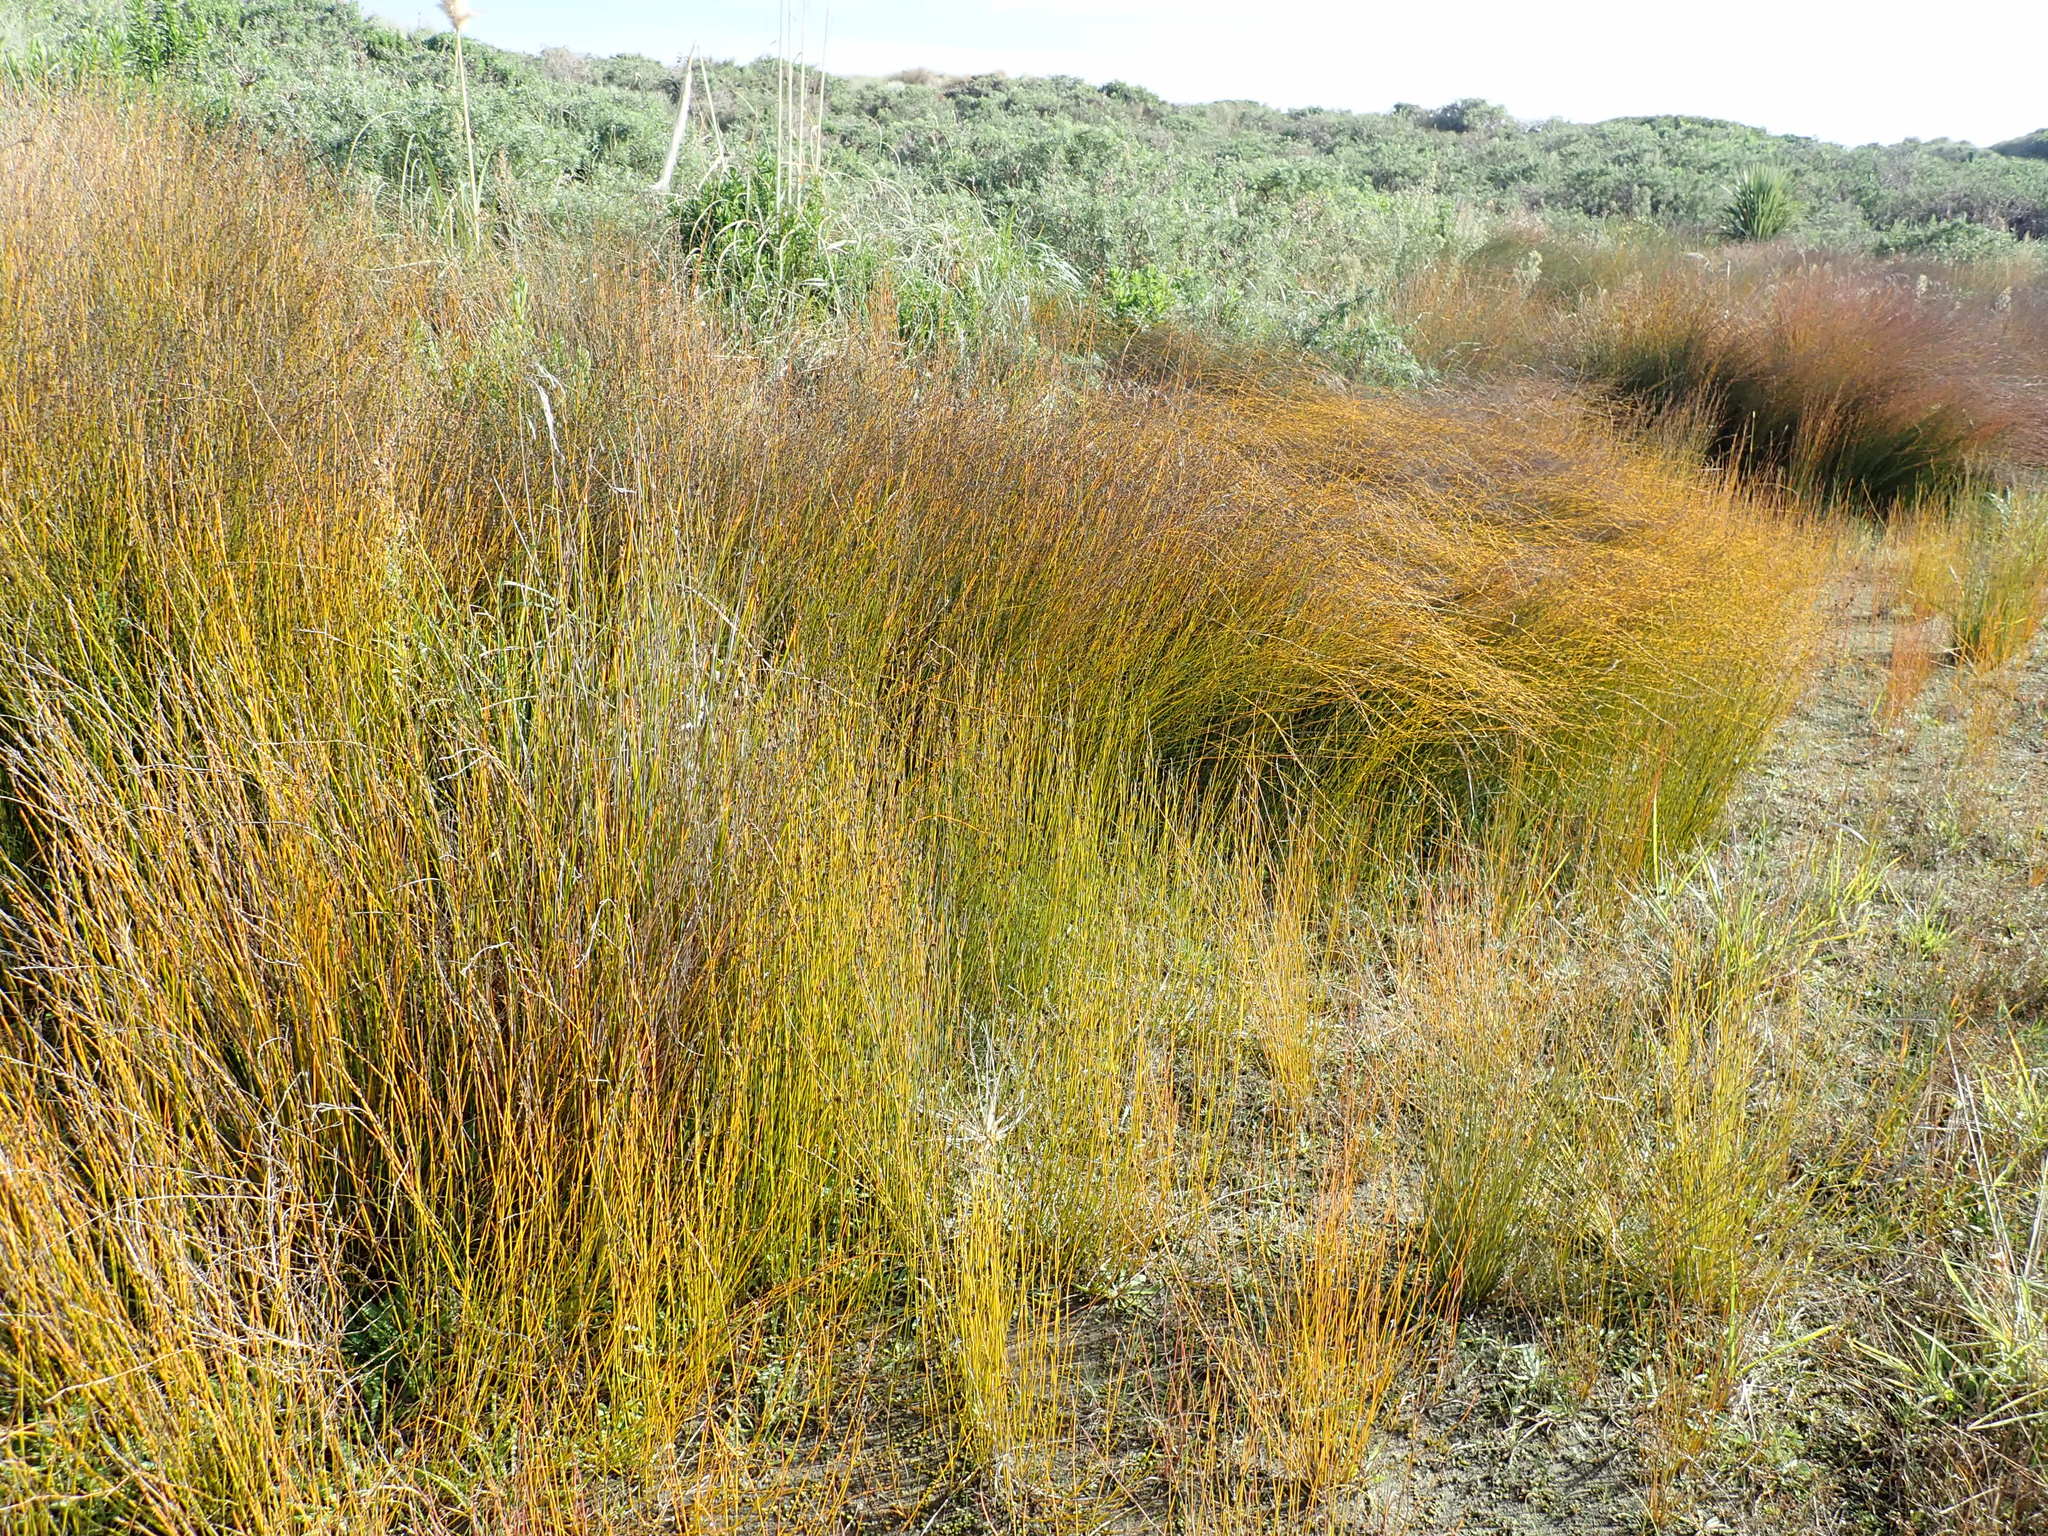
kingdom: Plantae
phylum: Tracheophyta
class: Liliopsida
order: Poales
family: Restionaceae
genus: Apodasmia
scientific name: Apodasmia similis
